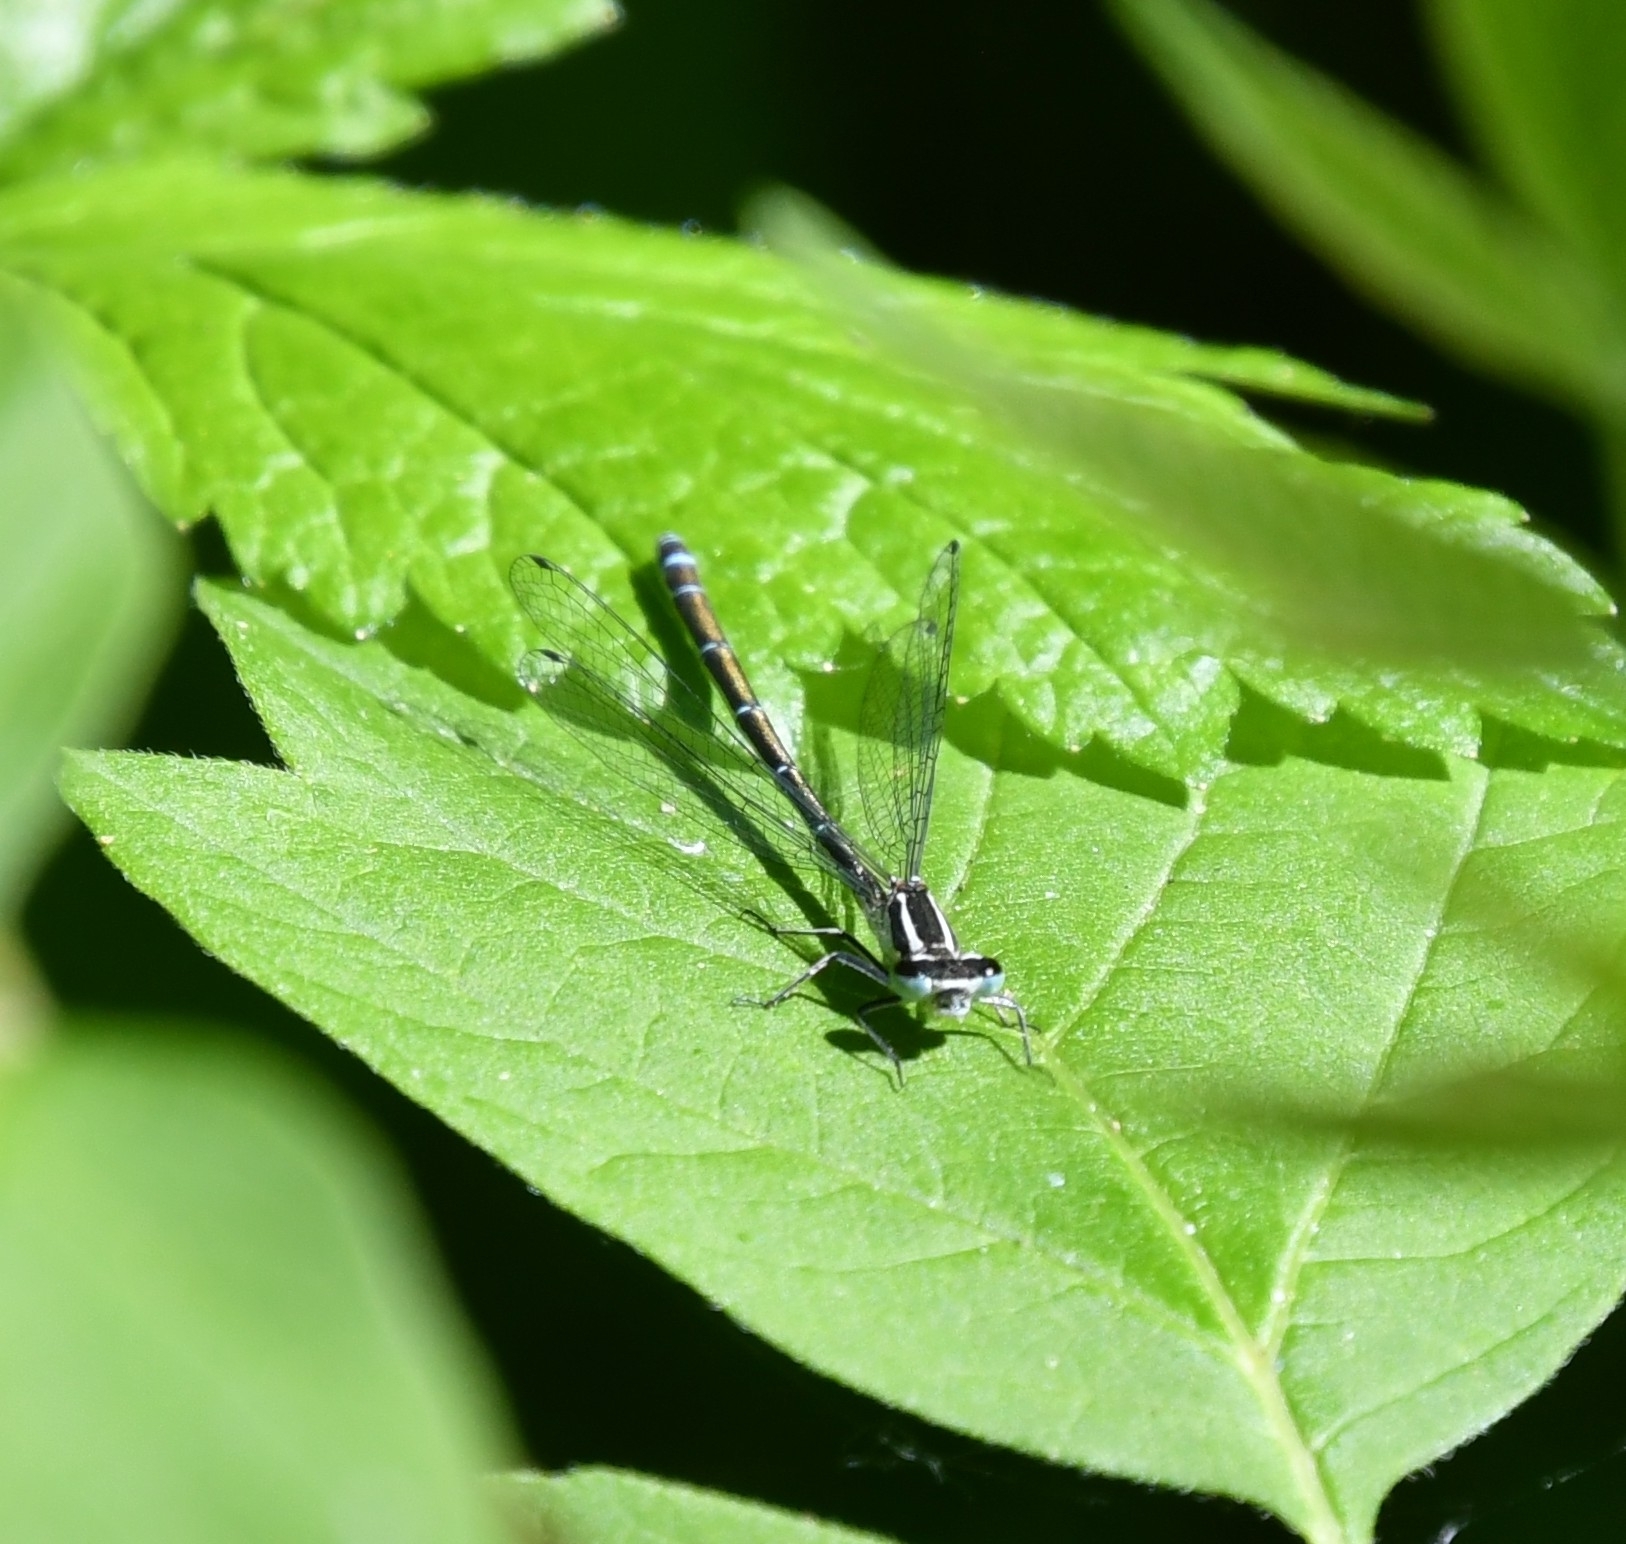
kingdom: Animalia
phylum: Arthropoda
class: Insecta
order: Odonata
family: Coenagrionidae
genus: Coenagrion
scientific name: Coenagrion puella
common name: Azure damselfly
